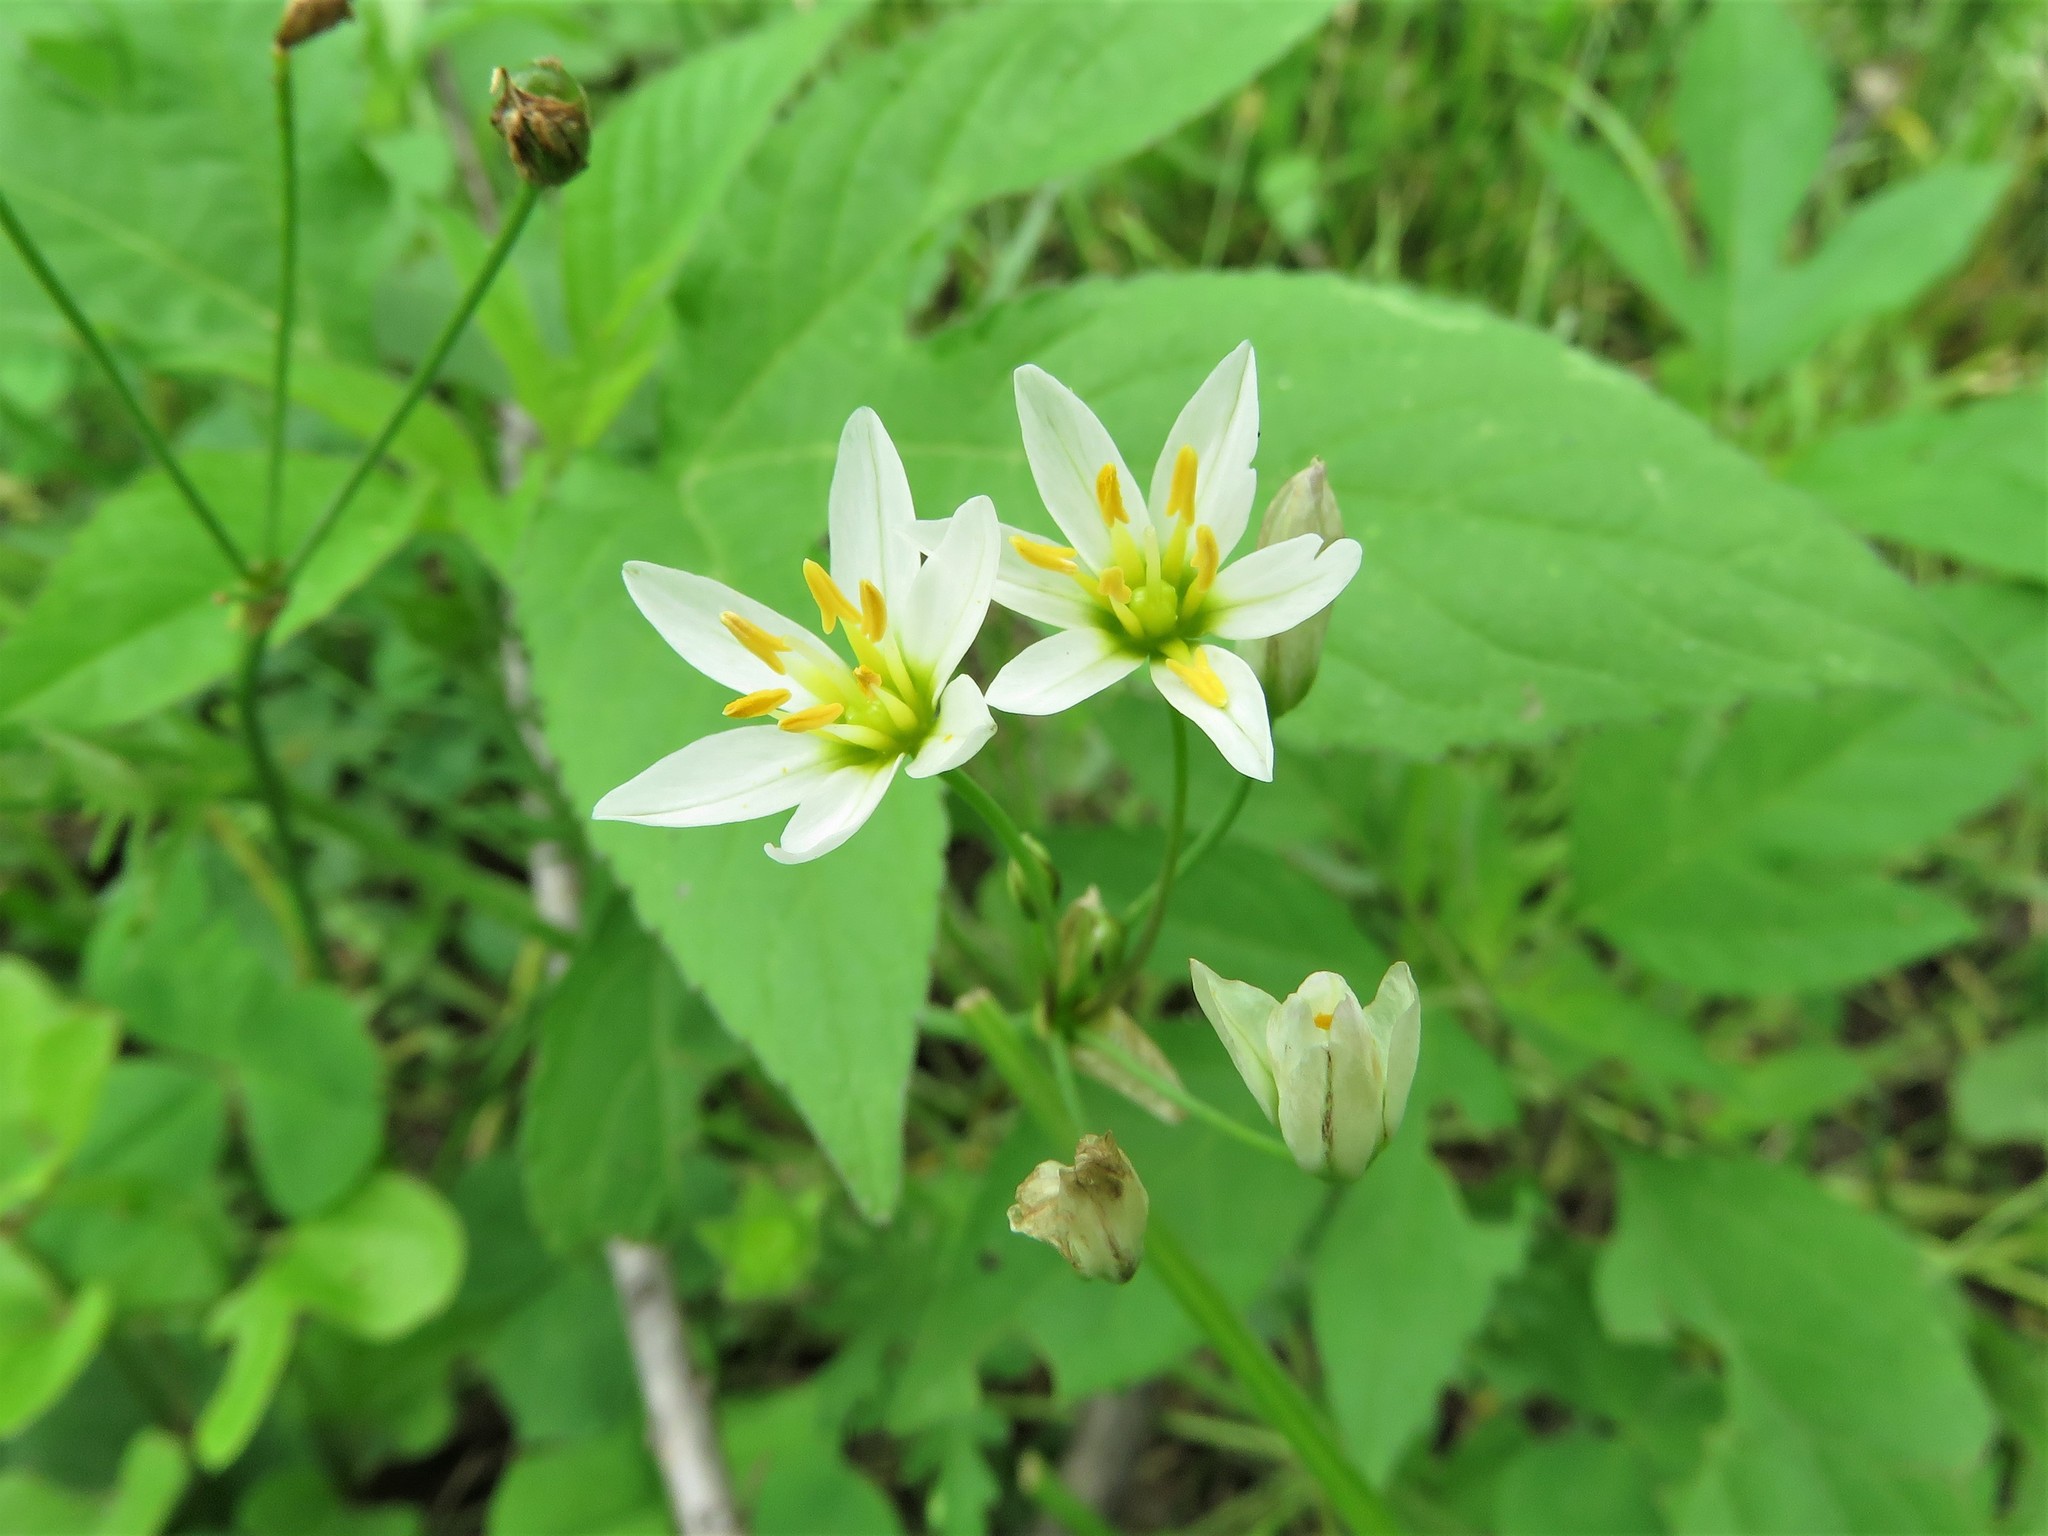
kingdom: Plantae
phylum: Tracheophyta
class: Liliopsida
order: Asparagales
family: Amaryllidaceae
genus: Nothoscordum
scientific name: Nothoscordum bivalve
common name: Crow-poison
